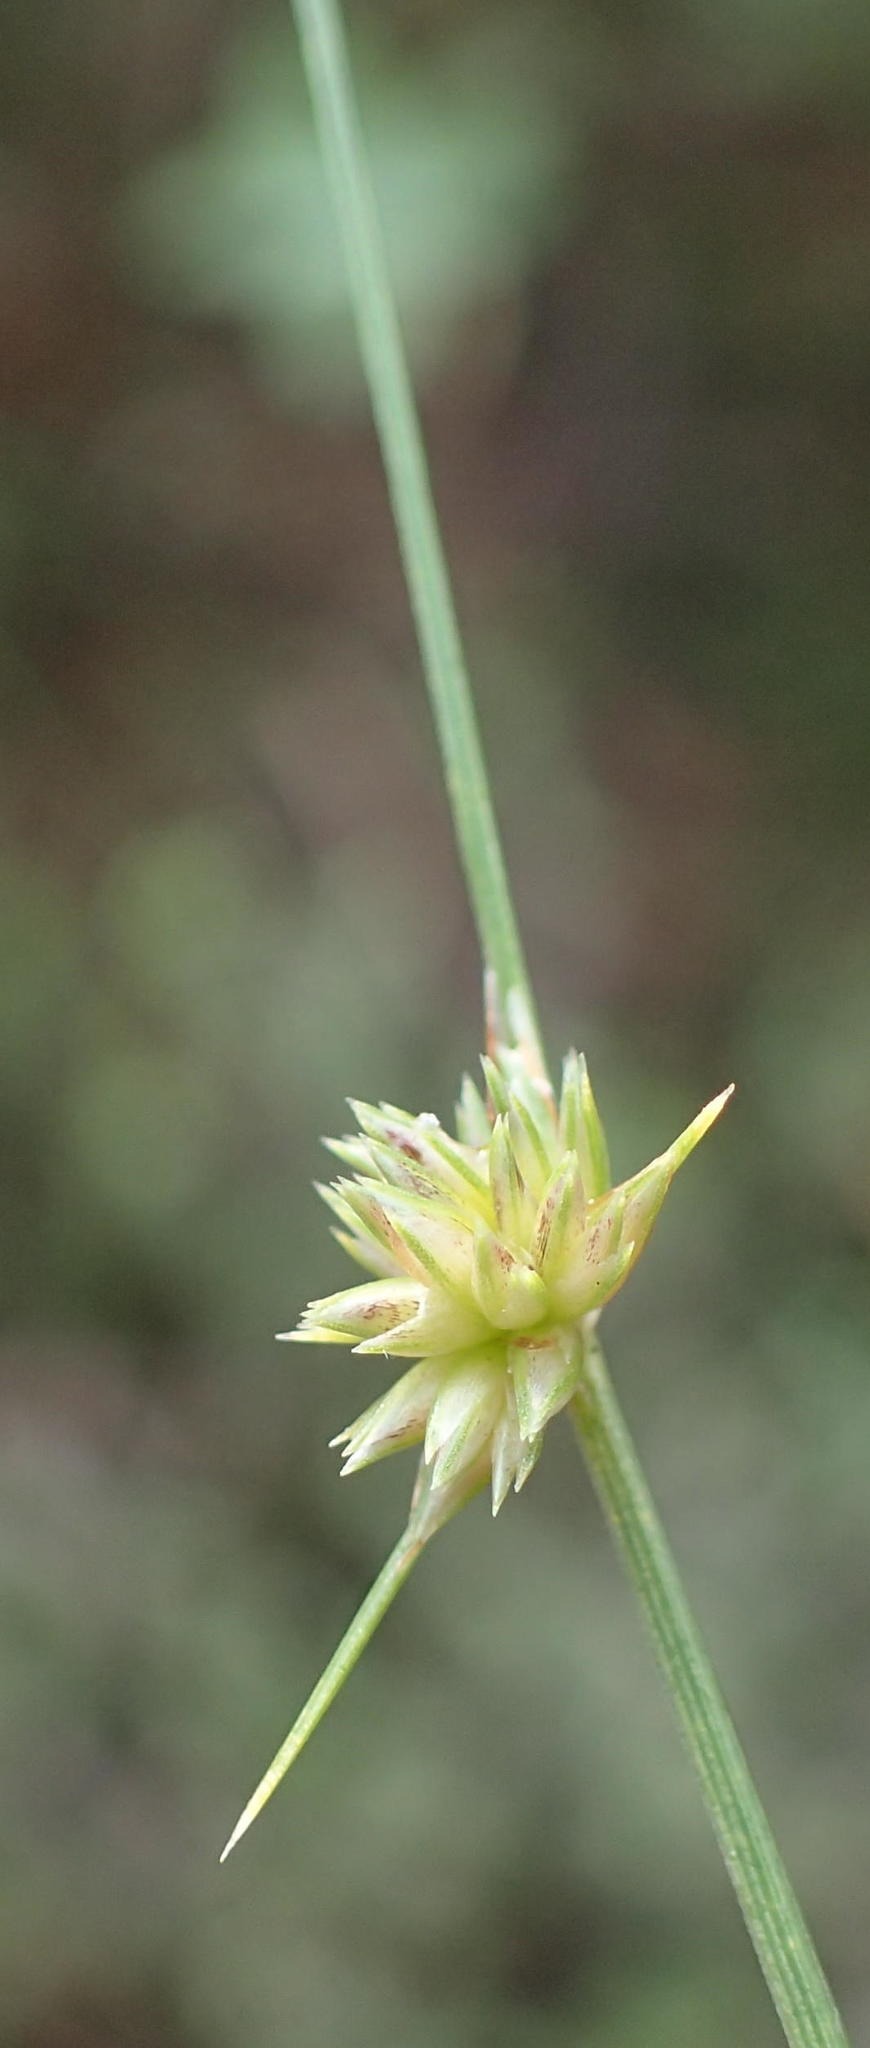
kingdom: Plantae
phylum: Tracheophyta
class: Liliopsida
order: Poales
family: Cyperaceae
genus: Ficinia
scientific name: Ficinia albicans
